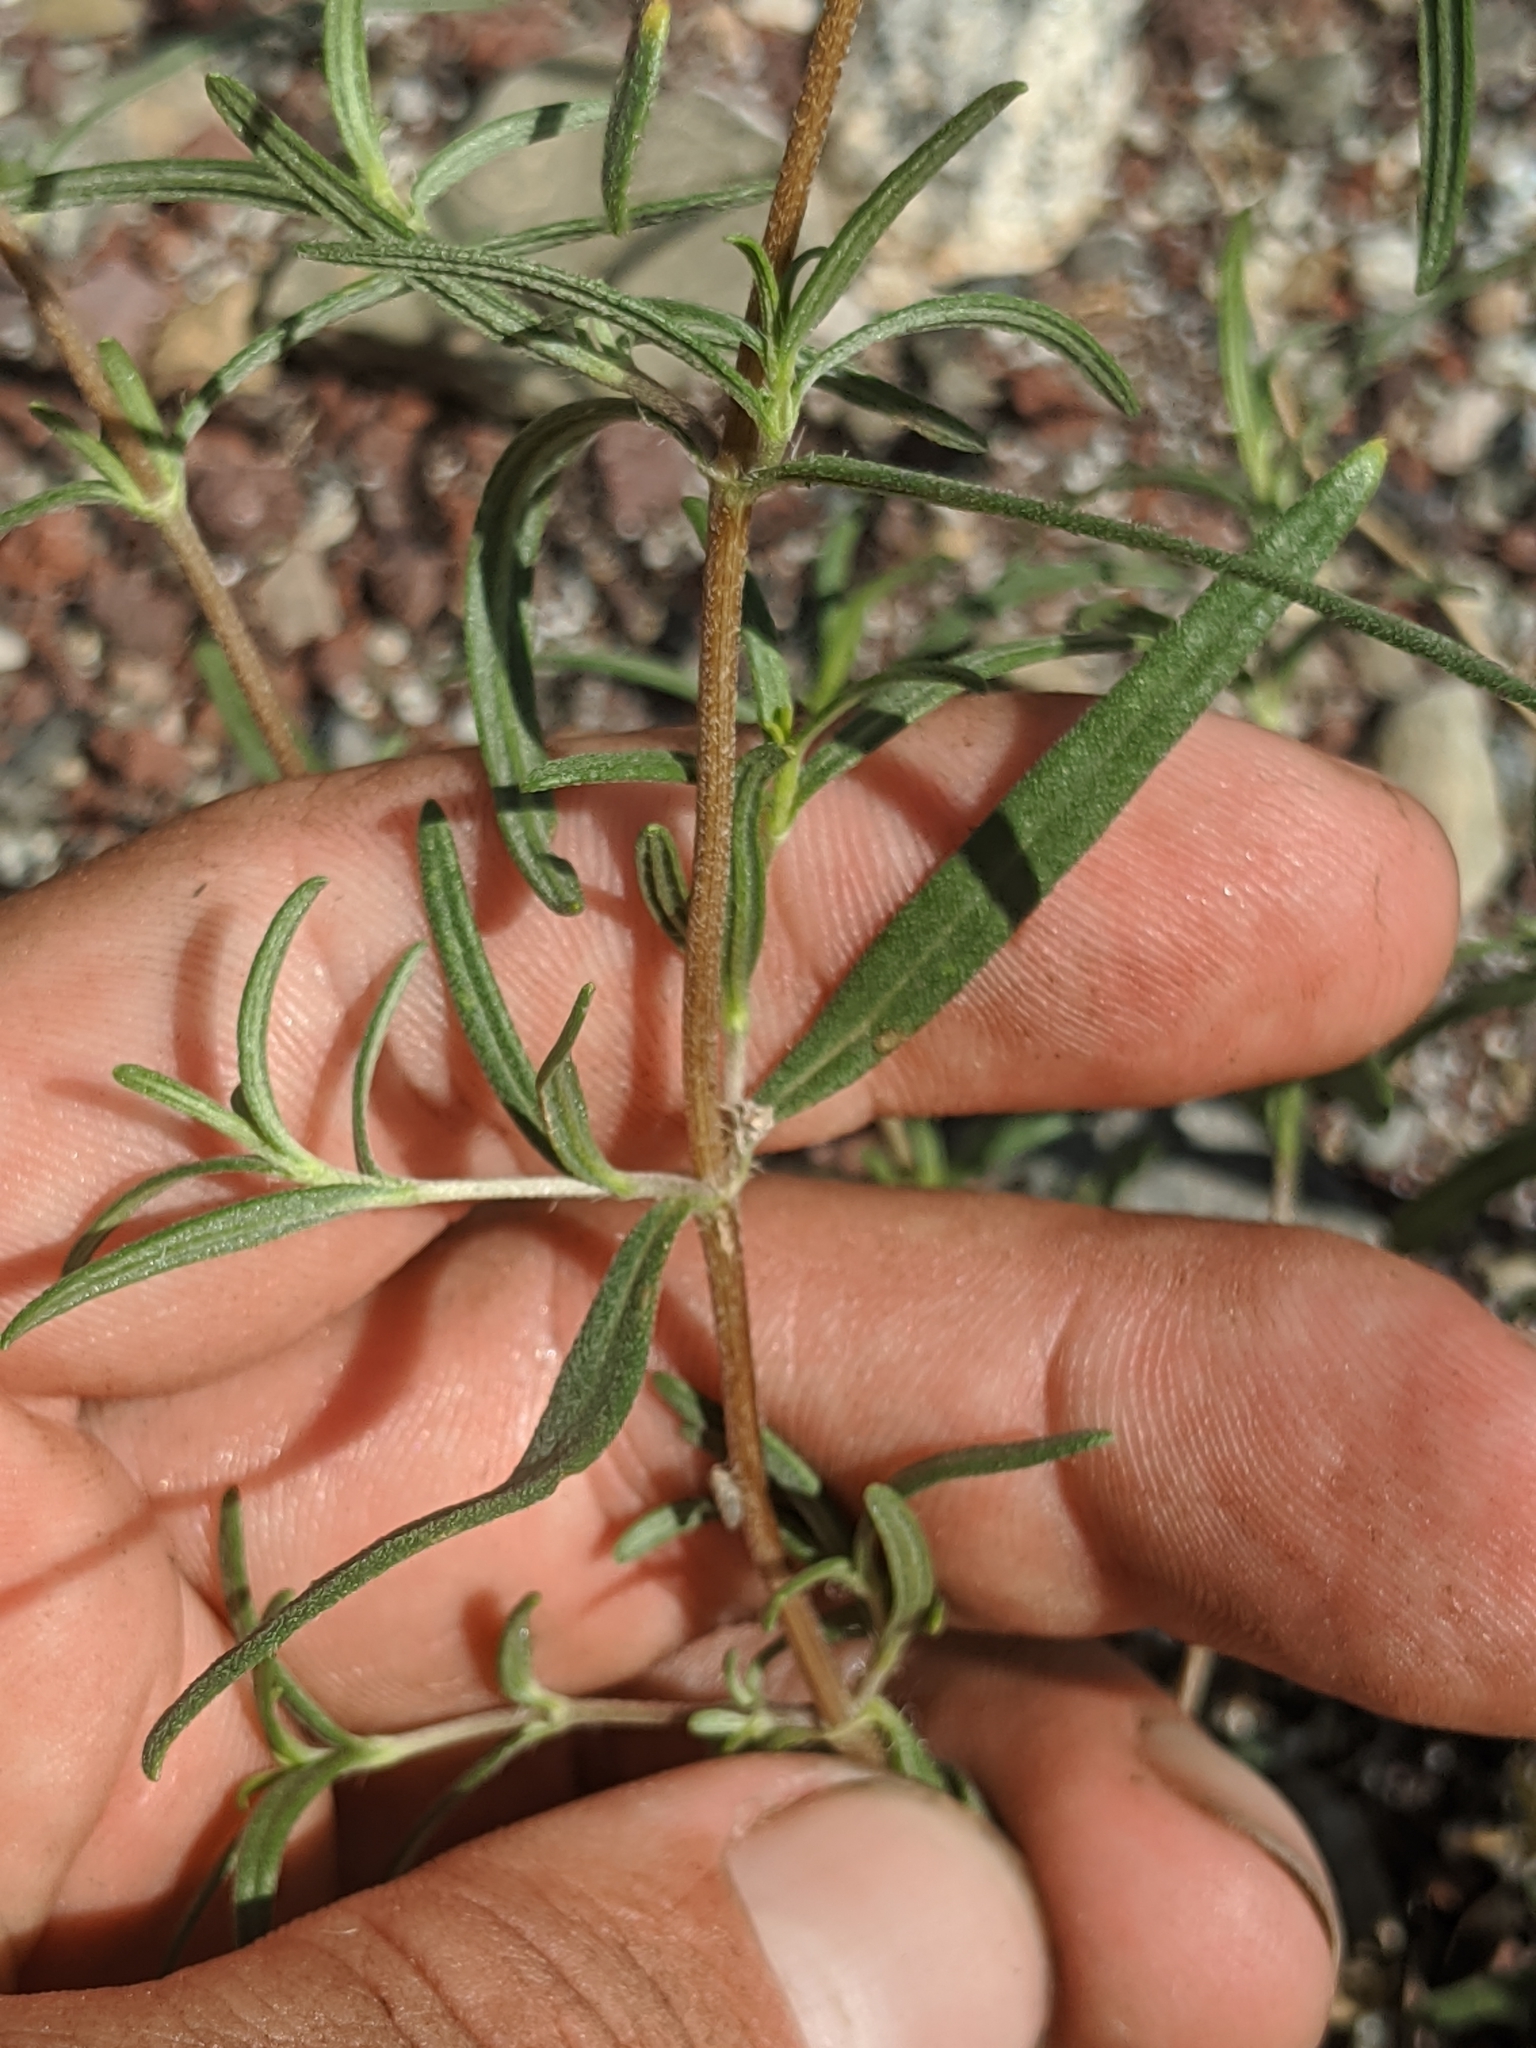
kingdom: Plantae
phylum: Tracheophyta
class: Magnoliopsida
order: Asterales
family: Asteraceae
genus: Heliomeris
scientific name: Heliomeris multiflora
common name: Showy goldeneye
